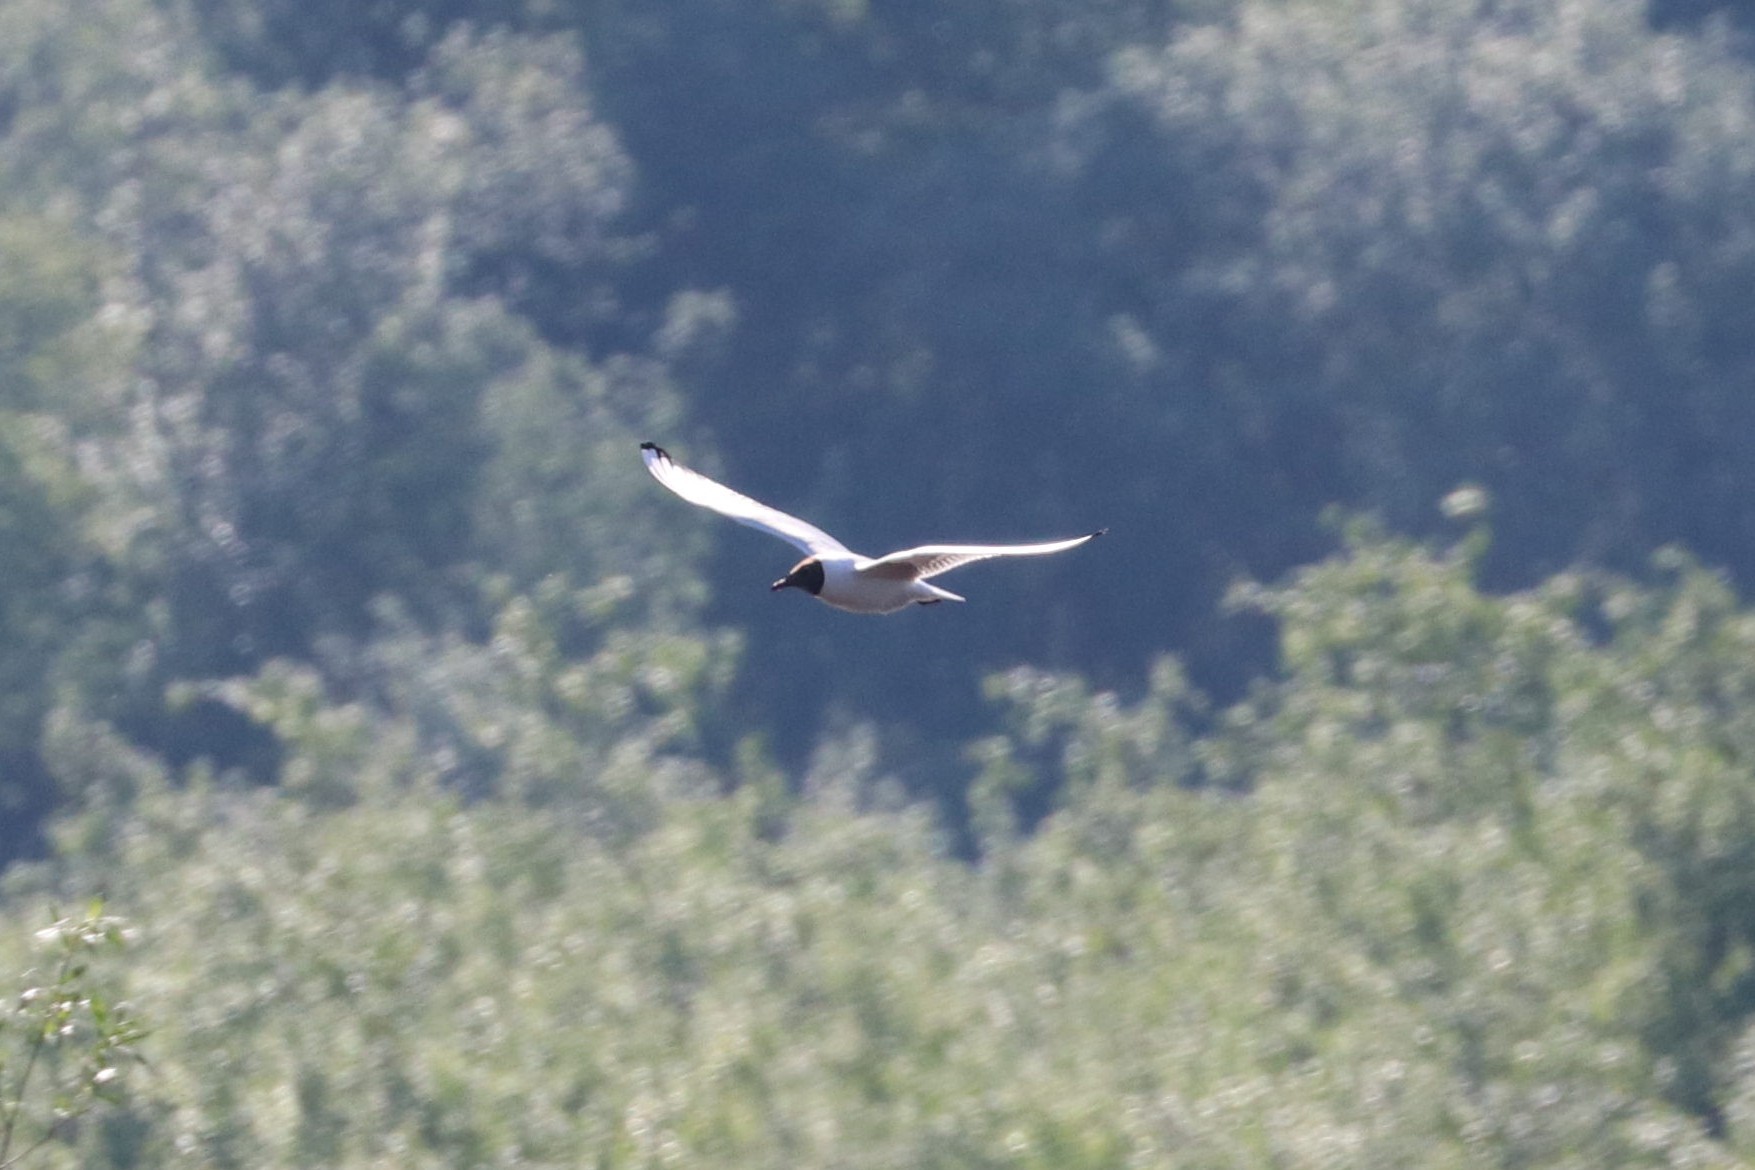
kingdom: Animalia
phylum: Chordata
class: Aves
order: Charadriiformes
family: Laridae
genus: Chroicocephalus
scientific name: Chroicocephalus ridibundus
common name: Black-headed gull
